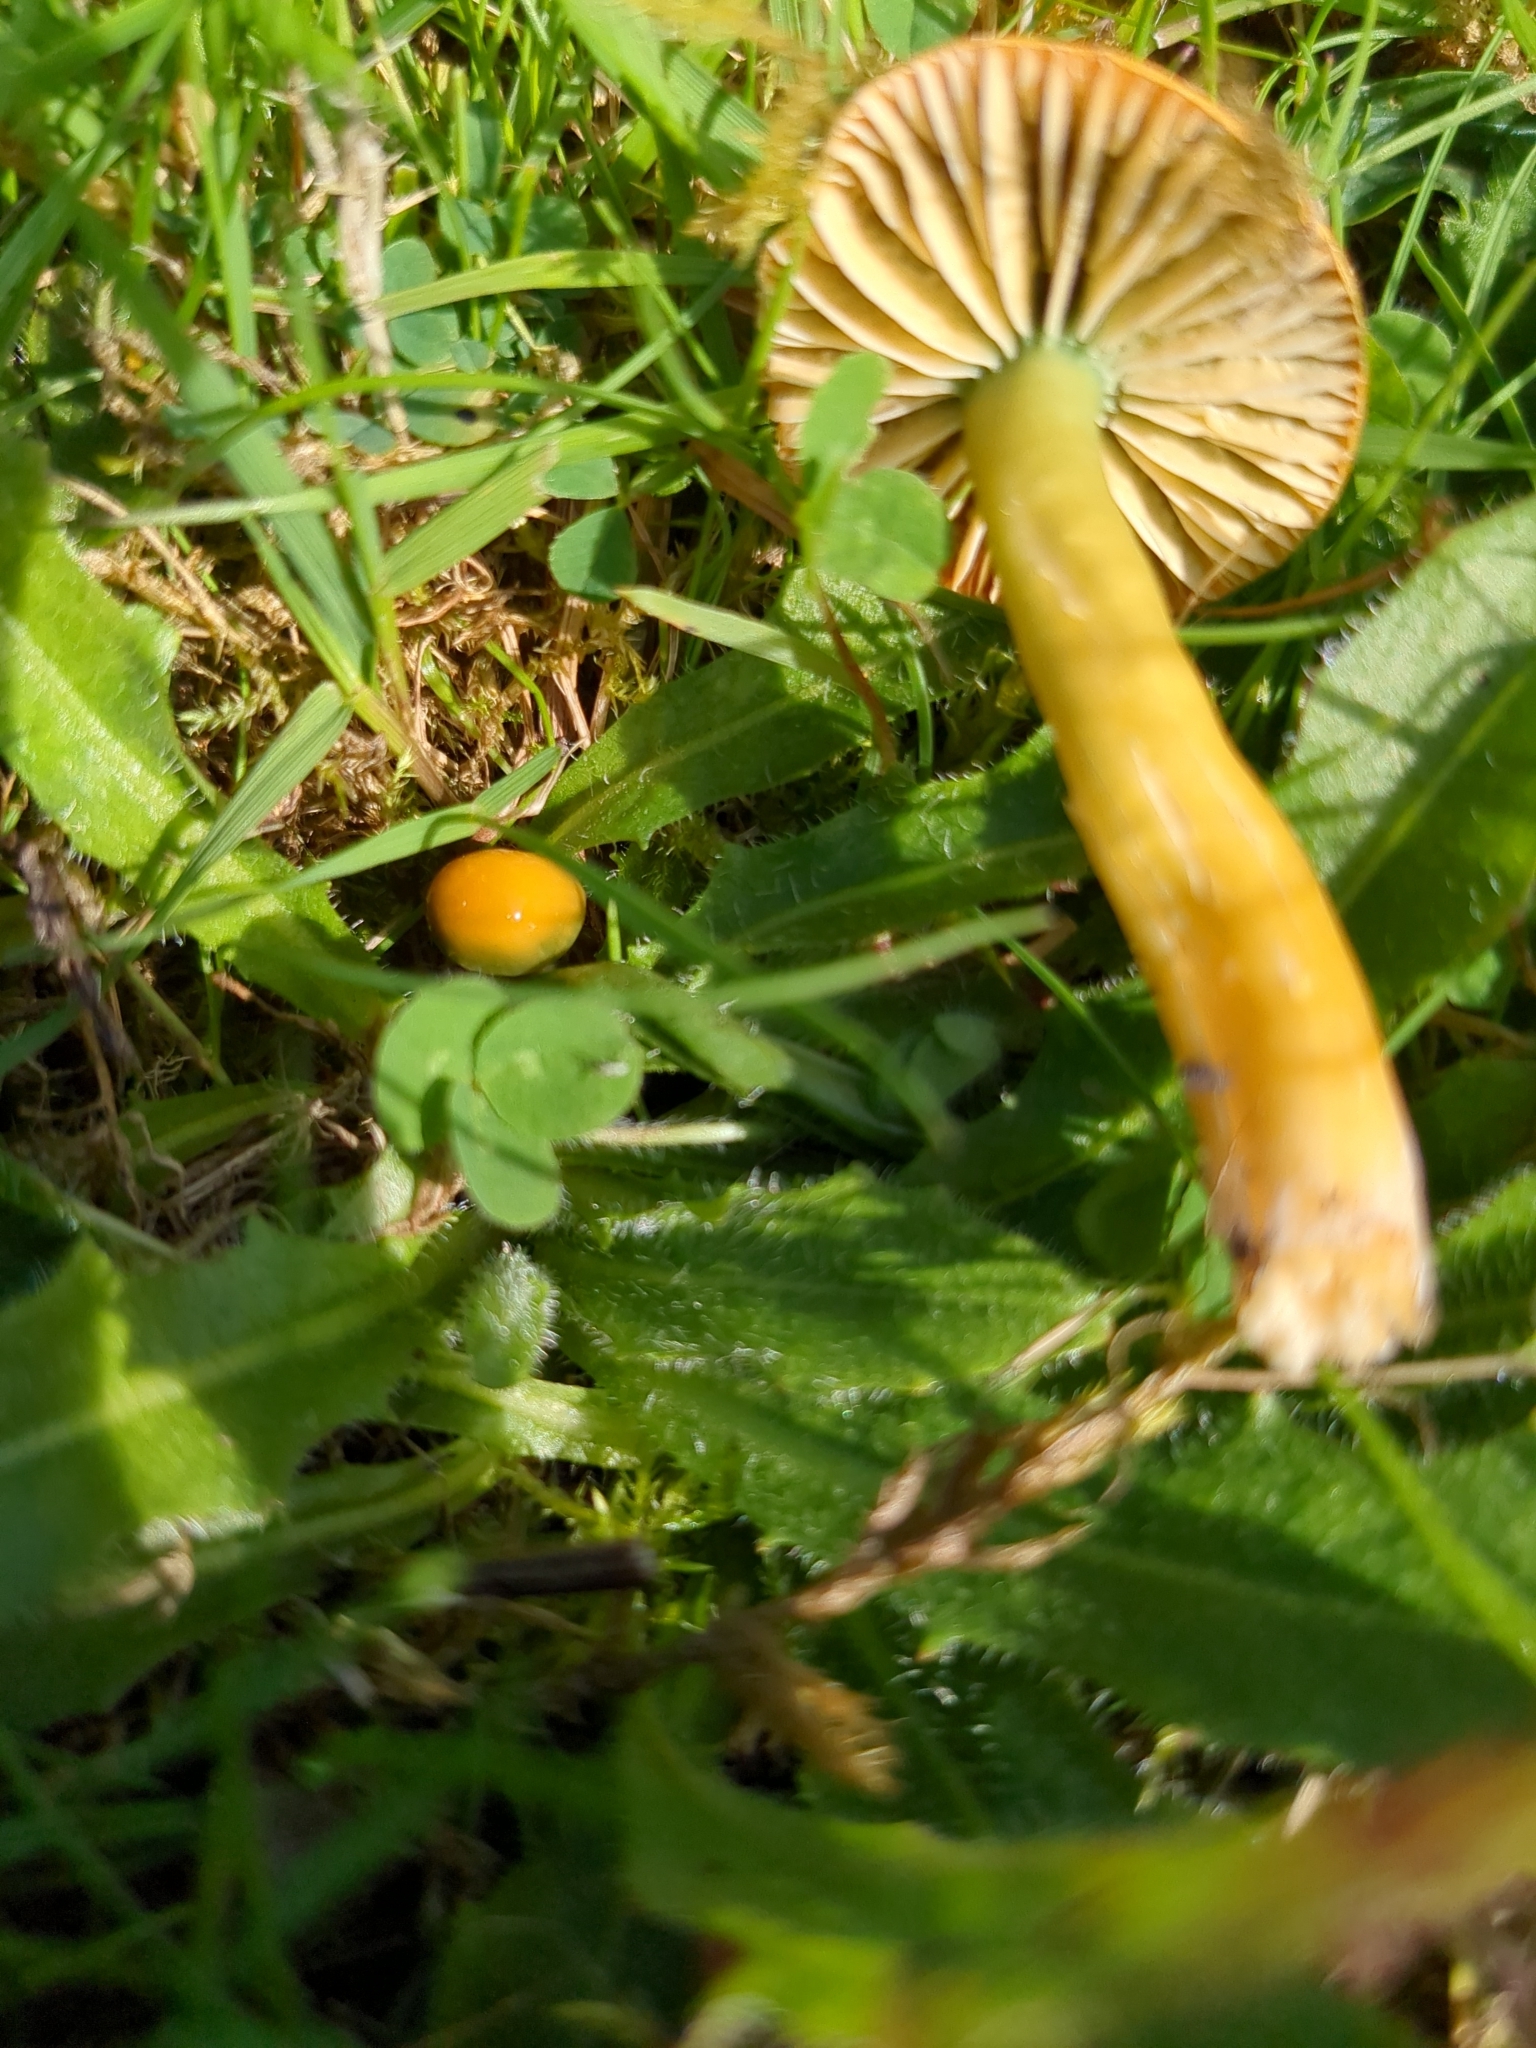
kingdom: Fungi
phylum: Basidiomycota
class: Agaricomycetes
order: Agaricales
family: Hygrophoraceae
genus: Gliophorus
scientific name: Gliophorus psittacinus
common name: Parrot wax-cap
